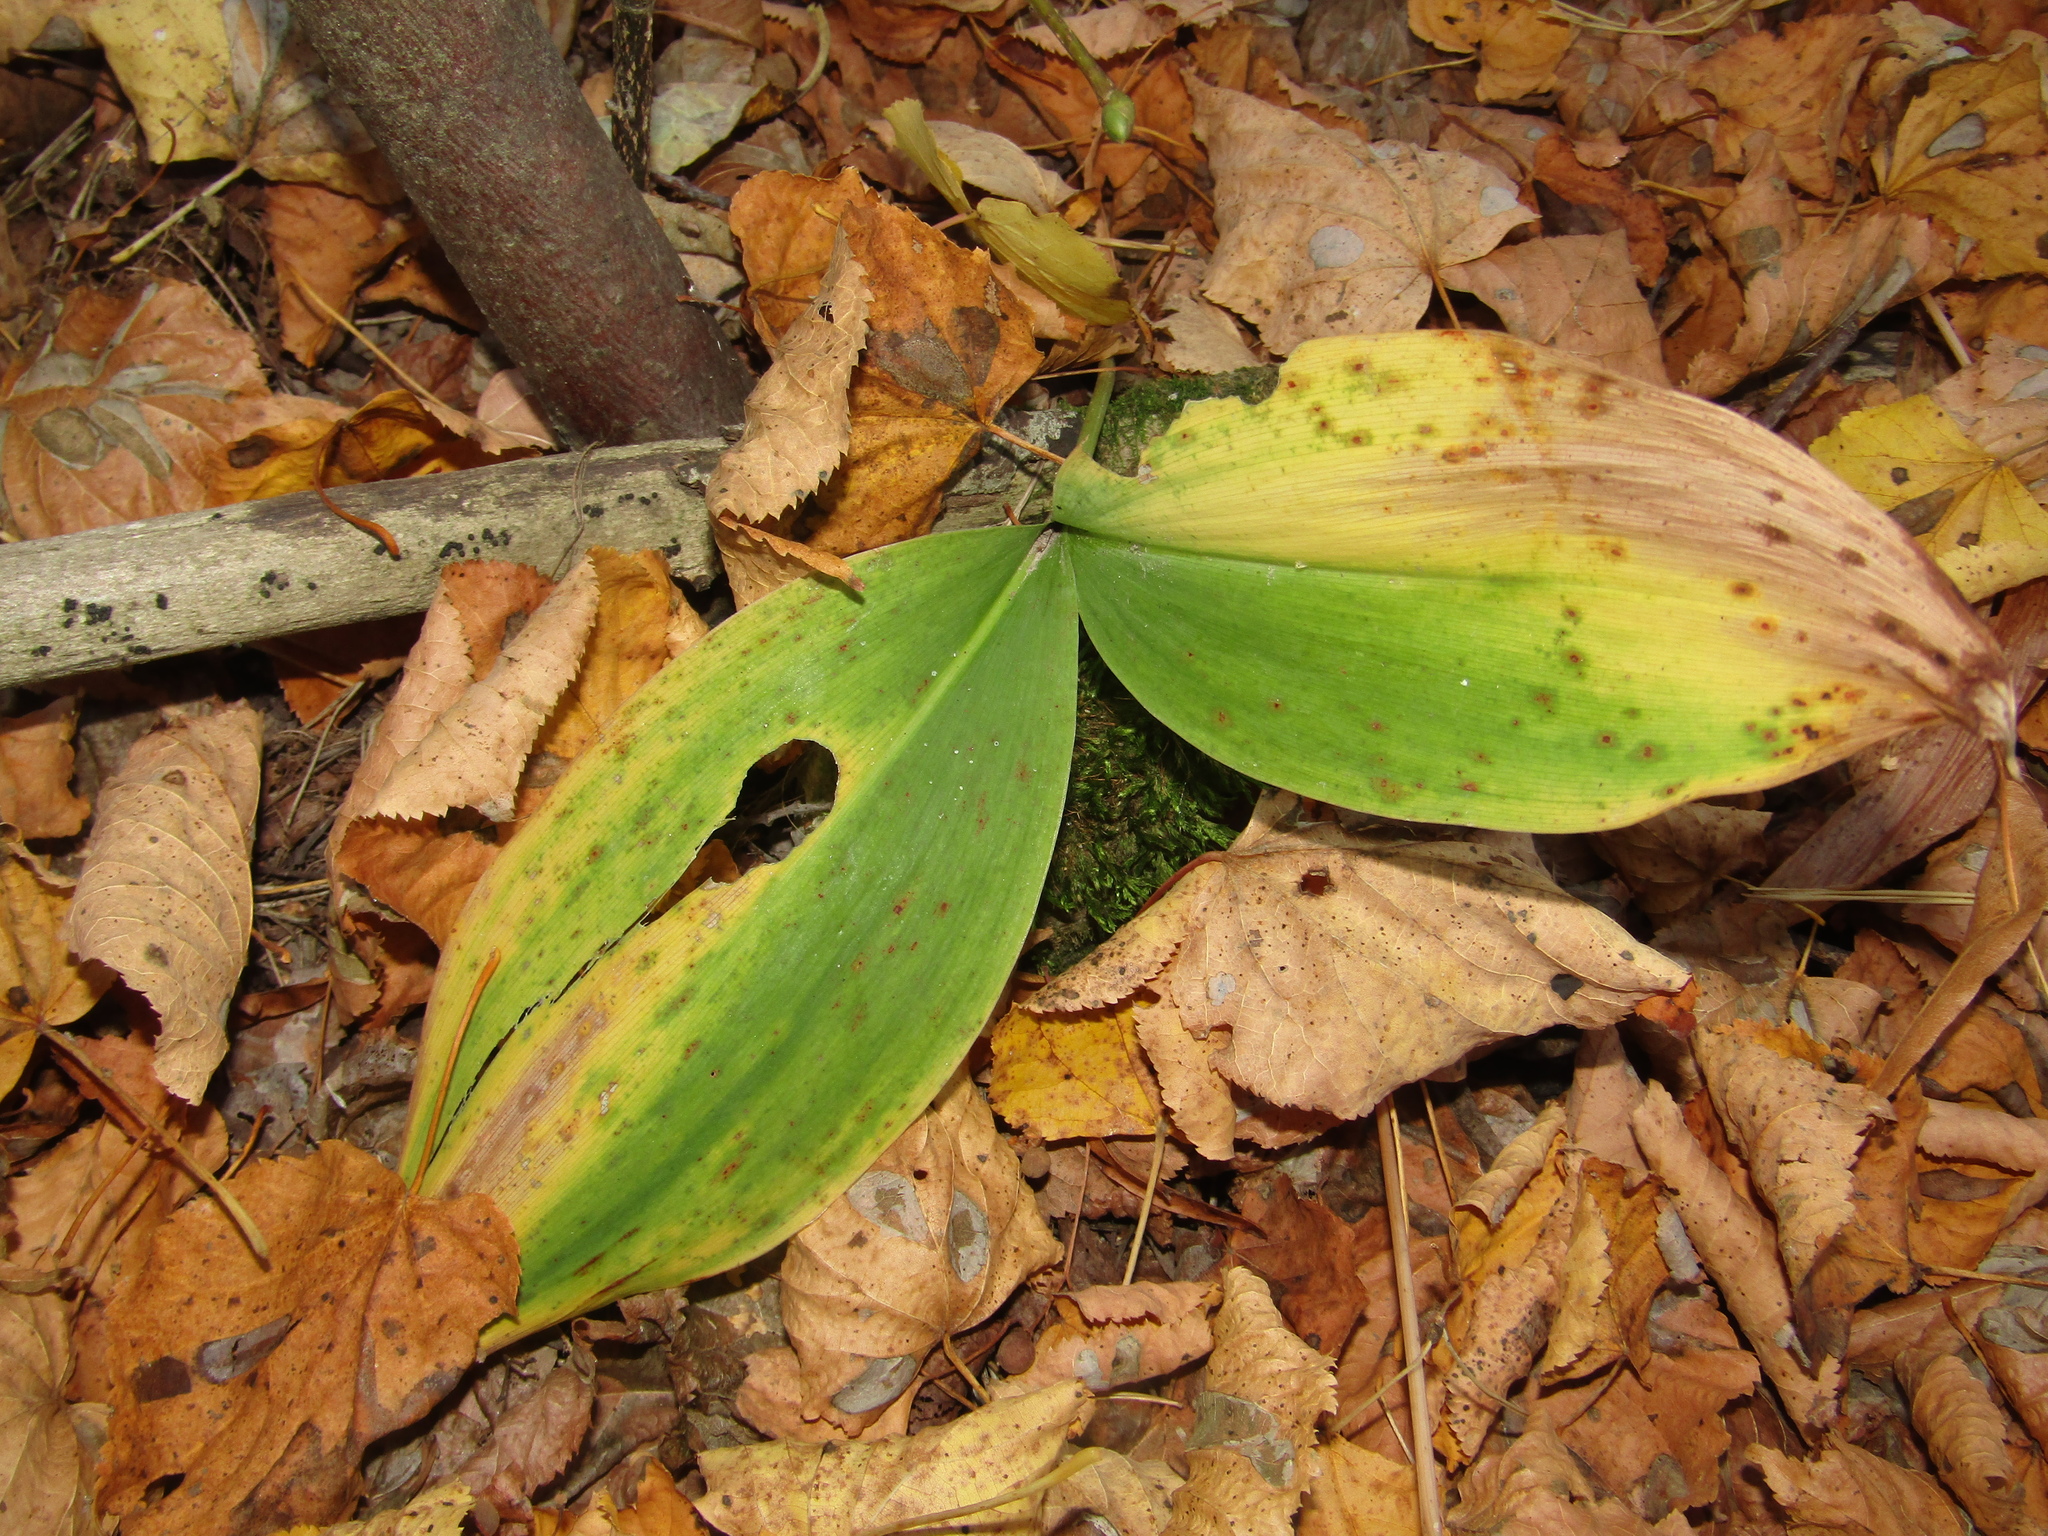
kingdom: Plantae
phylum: Tracheophyta
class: Liliopsida
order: Asparagales
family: Asparagaceae
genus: Convallaria
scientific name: Convallaria majalis
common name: Lily-of-the-valley
